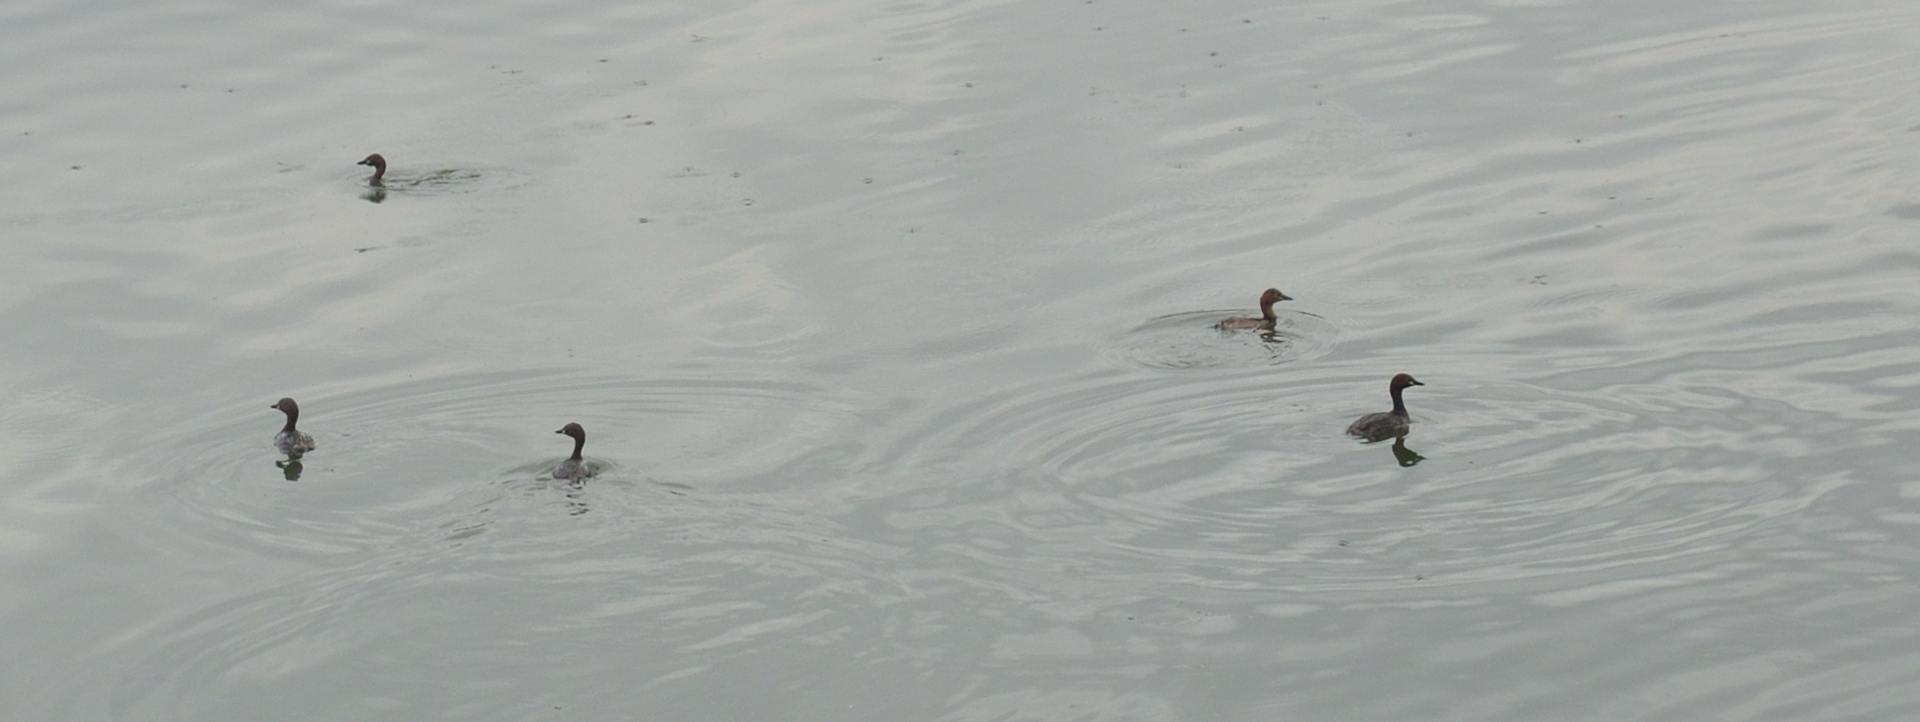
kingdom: Animalia
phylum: Chordata
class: Aves
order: Podicipediformes
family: Podicipedidae
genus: Tachybaptus
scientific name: Tachybaptus ruficollis
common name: Little grebe
